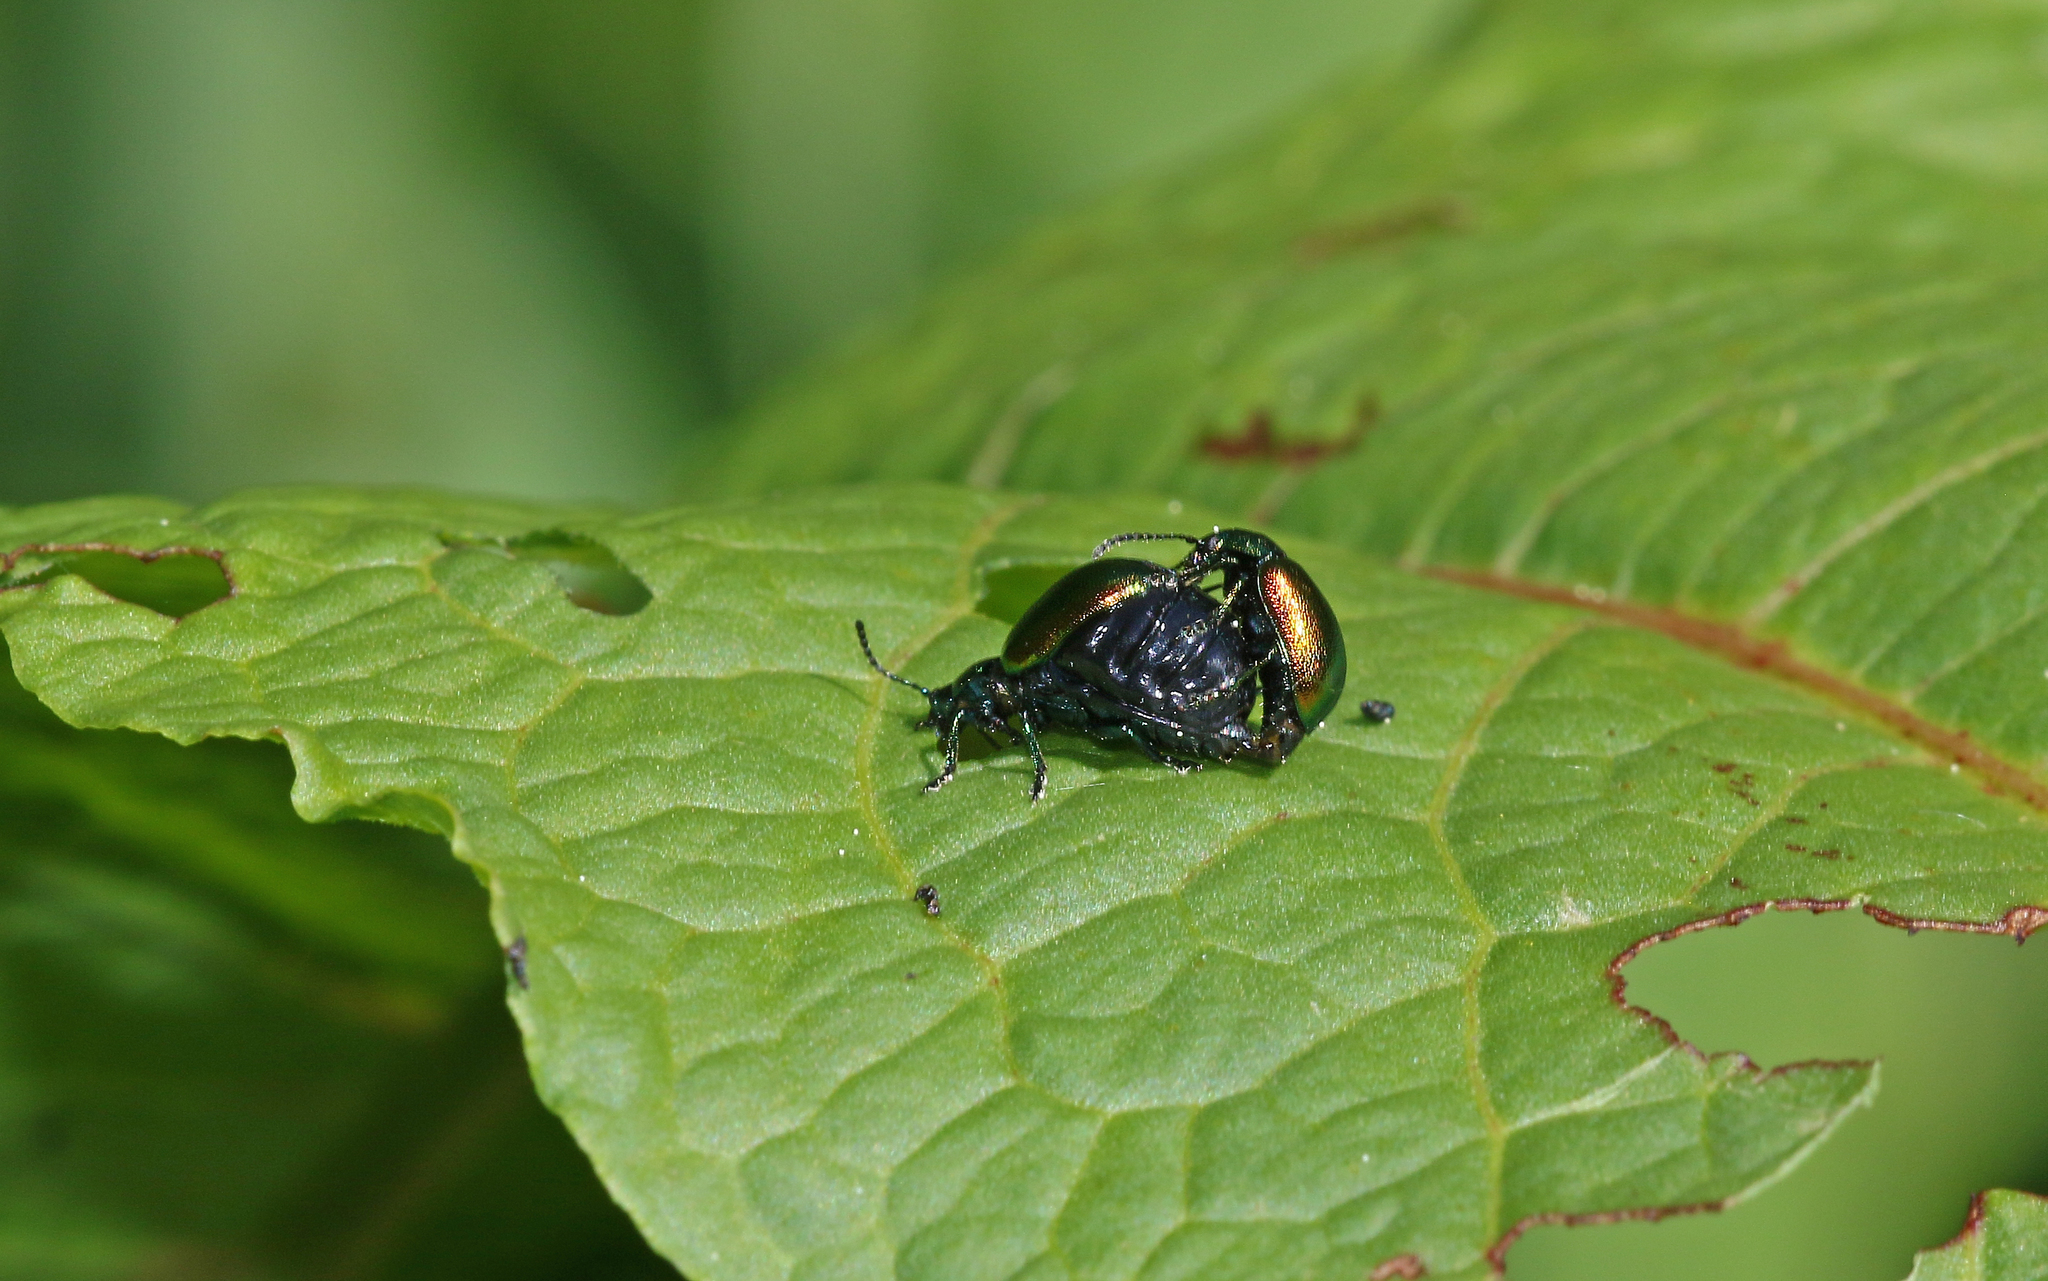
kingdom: Animalia
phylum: Arthropoda
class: Insecta
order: Coleoptera
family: Chrysomelidae
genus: Gastrophysa
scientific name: Gastrophysa viridula
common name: Green dock beetle
